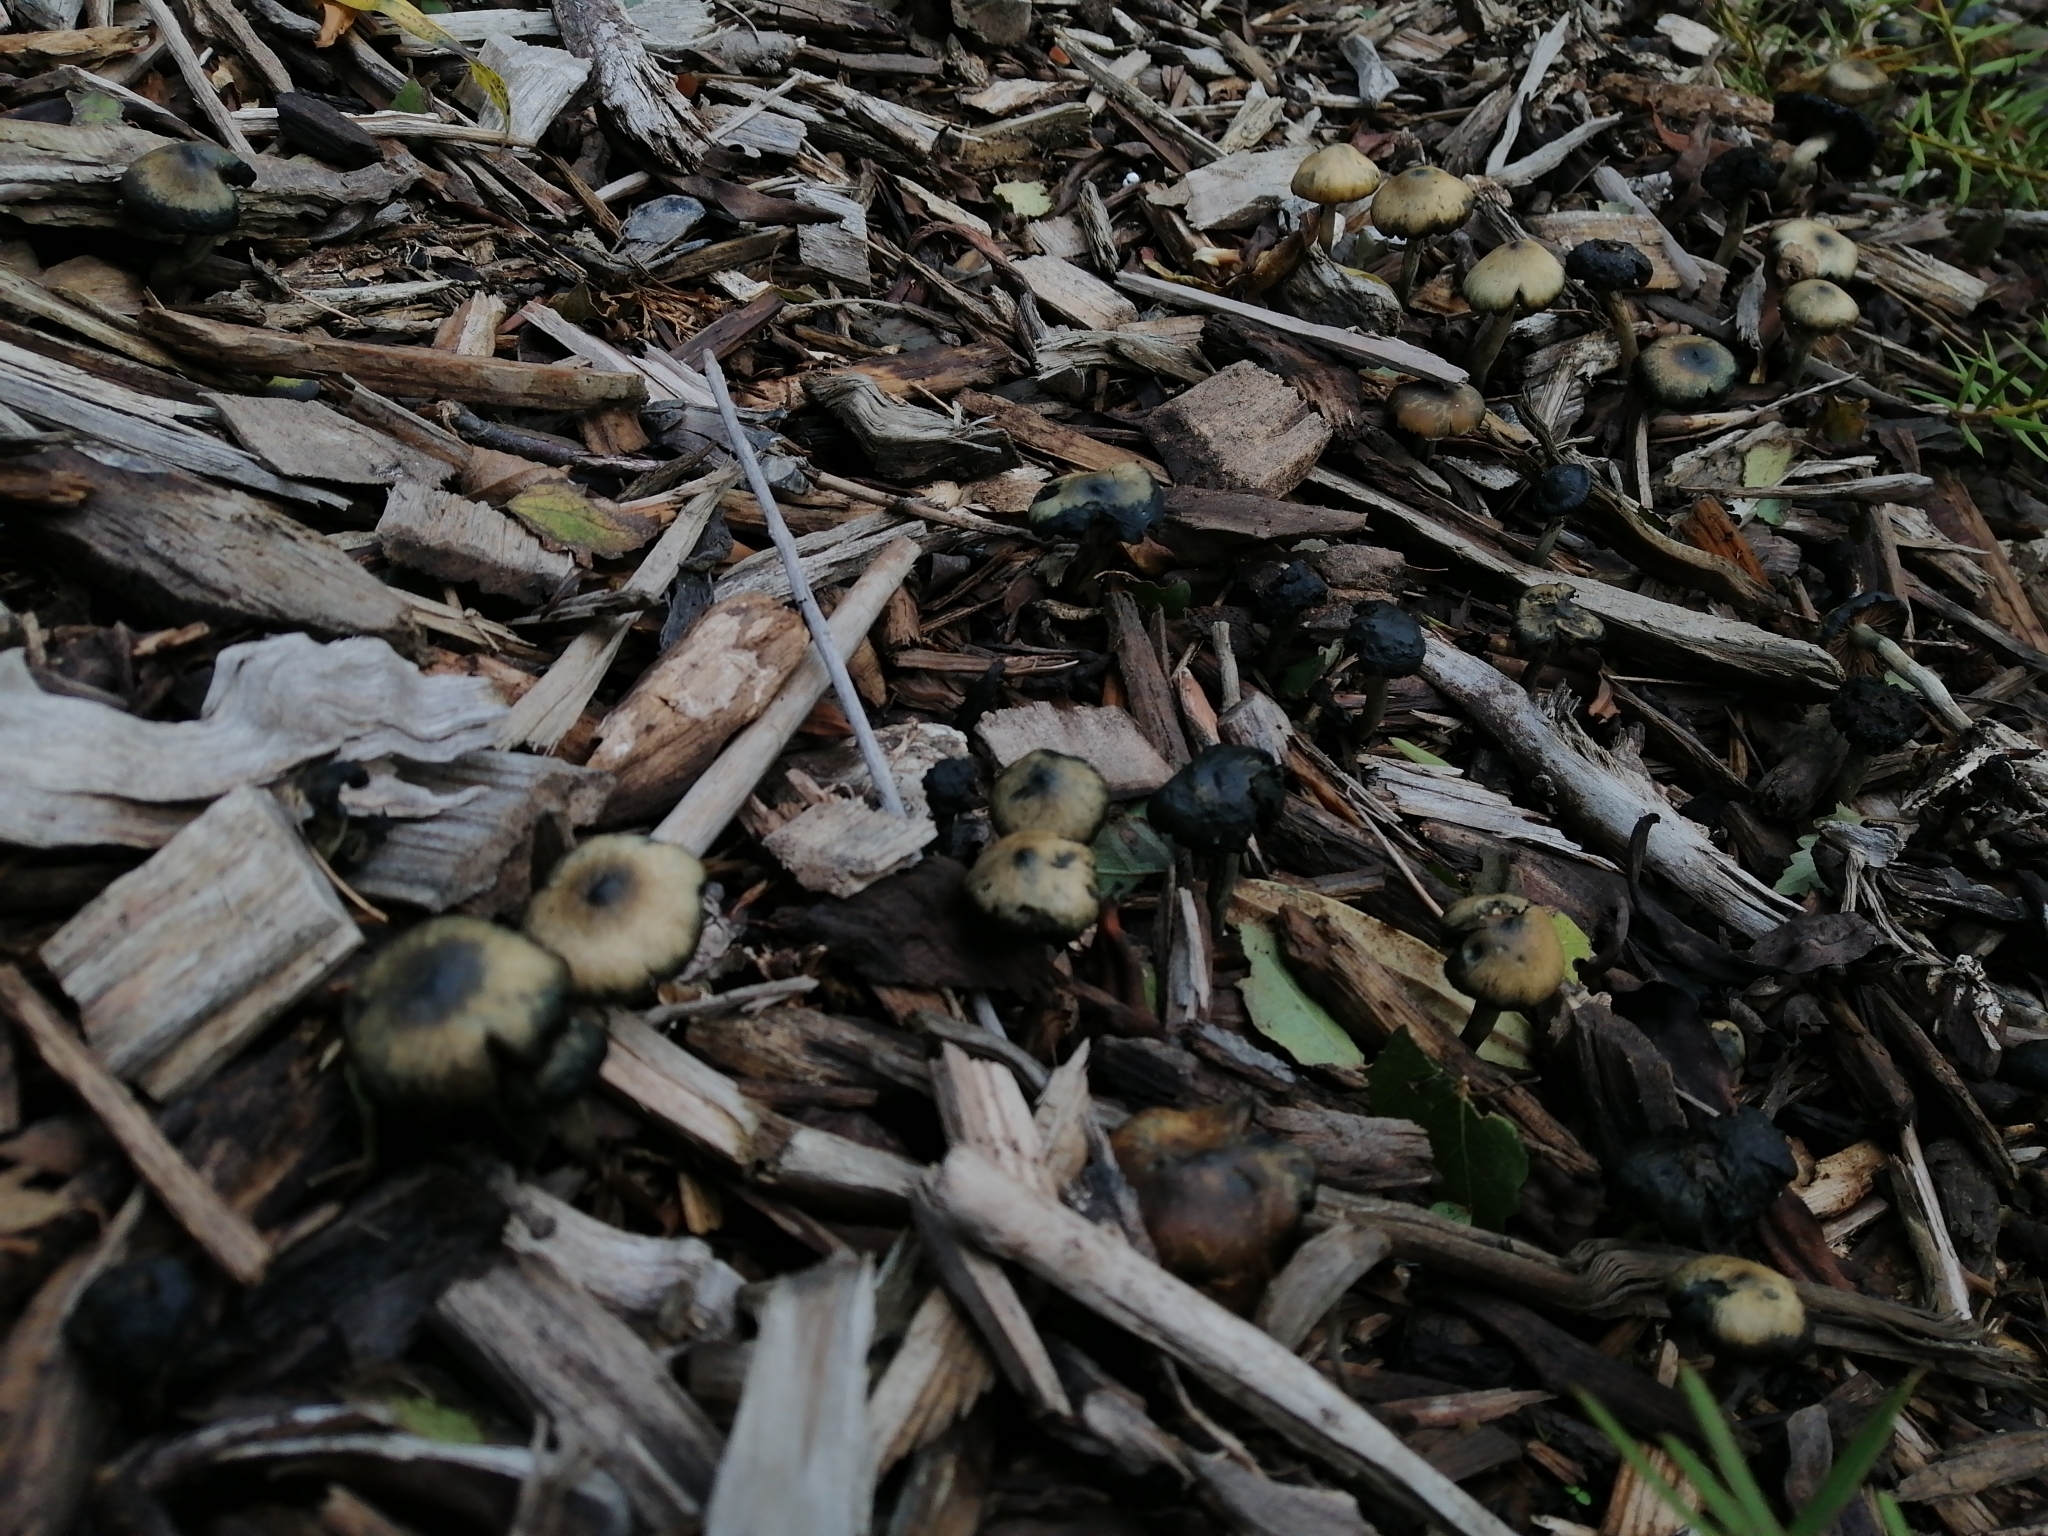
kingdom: Fungi
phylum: Basidiomycota
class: Agaricomycetes
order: Agaricales
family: Hymenogastraceae
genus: Psilocybe
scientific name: Psilocybe subaeruginosa
